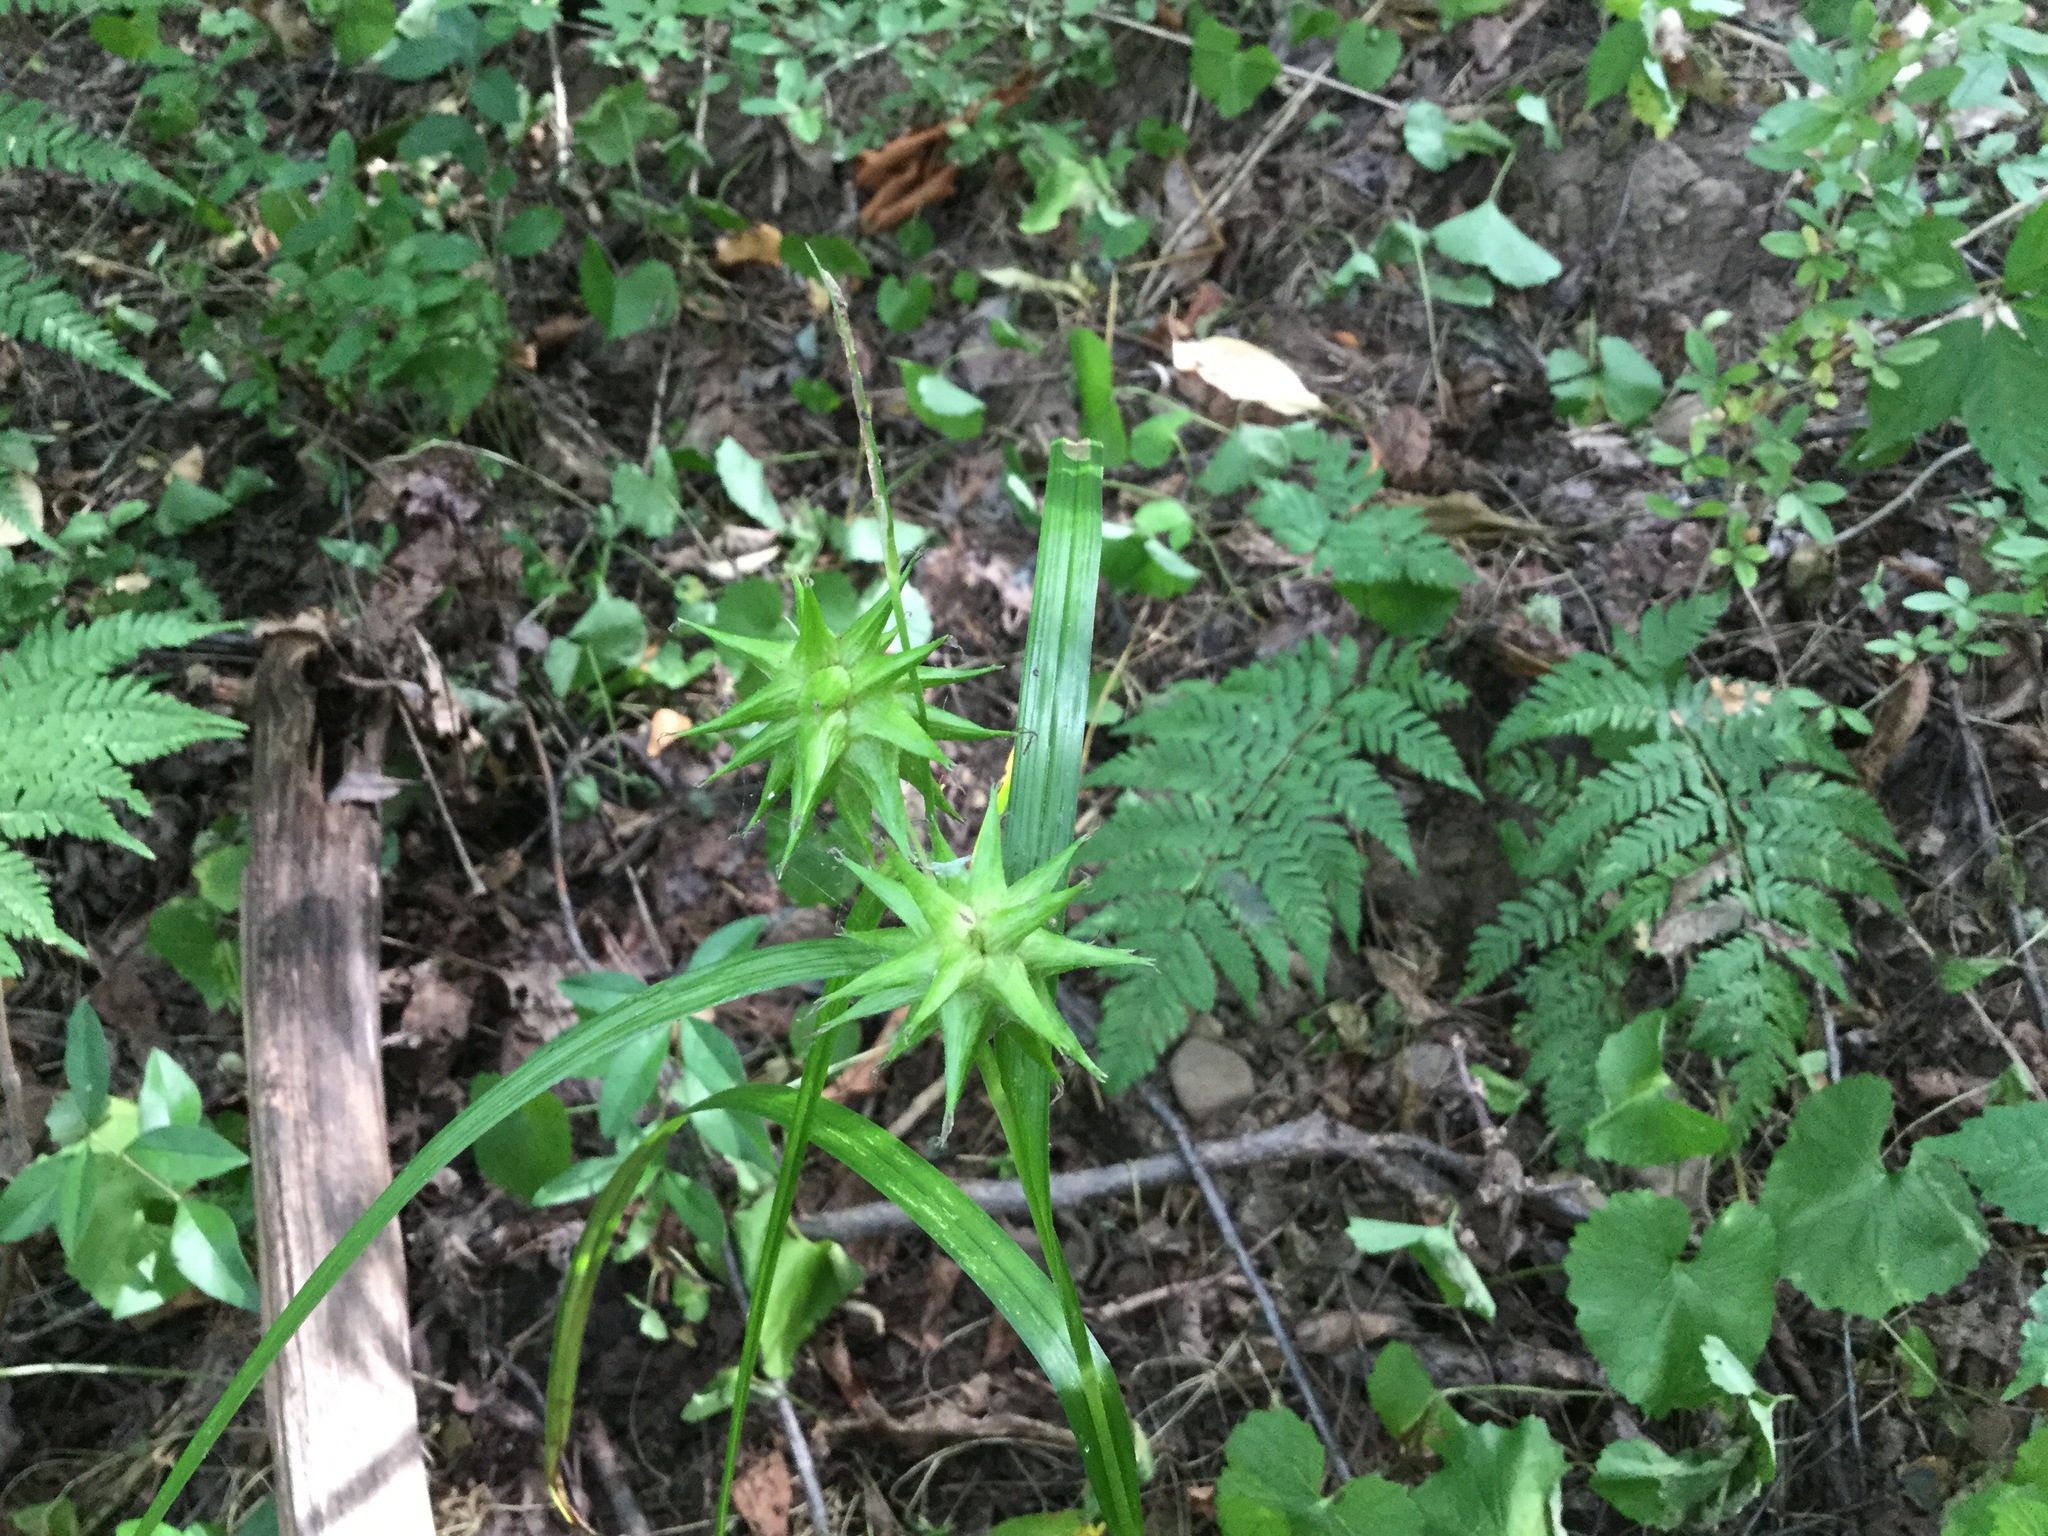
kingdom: Plantae
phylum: Tracheophyta
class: Liliopsida
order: Poales
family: Cyperaceae
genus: Carex
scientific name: Carex intumescens
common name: Greater bladder sedge
